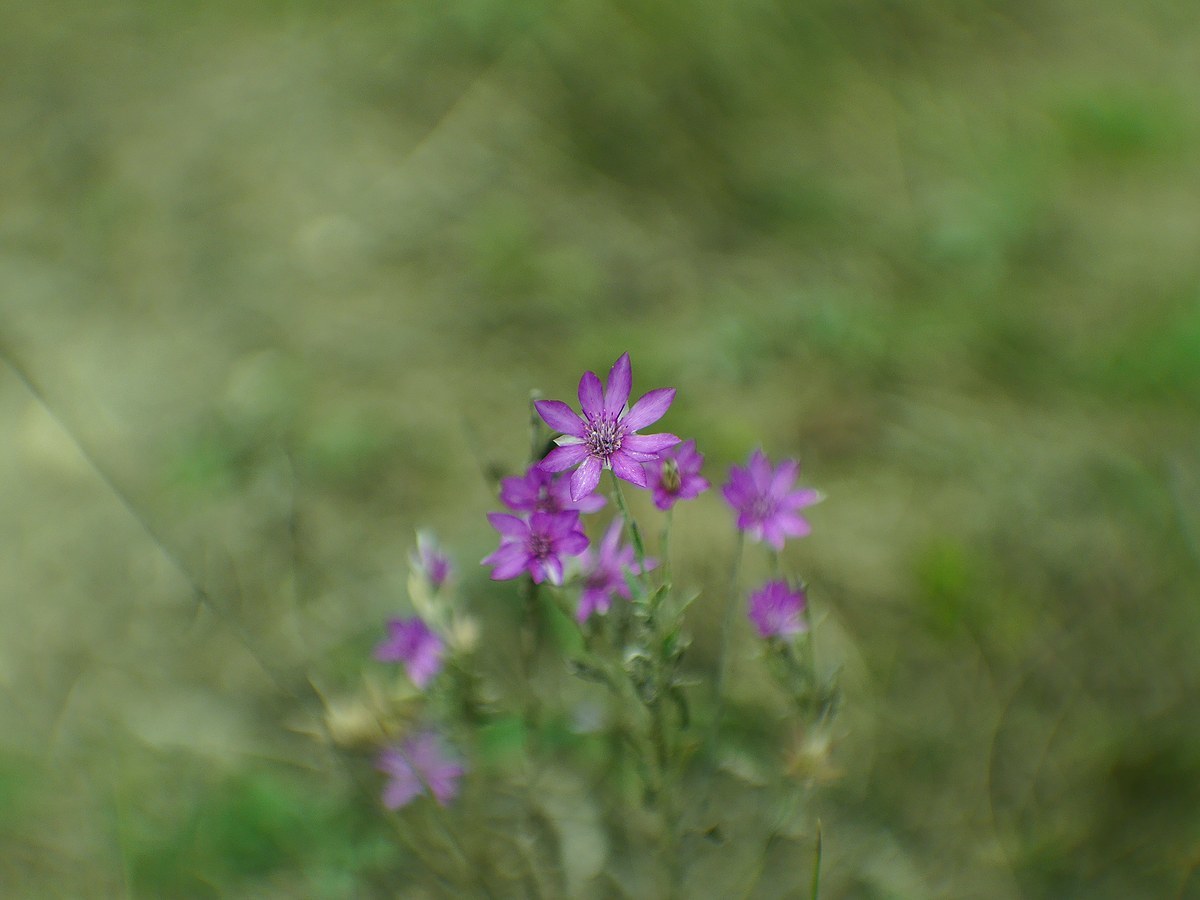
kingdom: Plantae
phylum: Tracheophyta
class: Magnoliopsida
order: Asterales
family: Asteraceae
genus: Xeranthemum
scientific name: Xeranthemum annuum
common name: Immortelle
